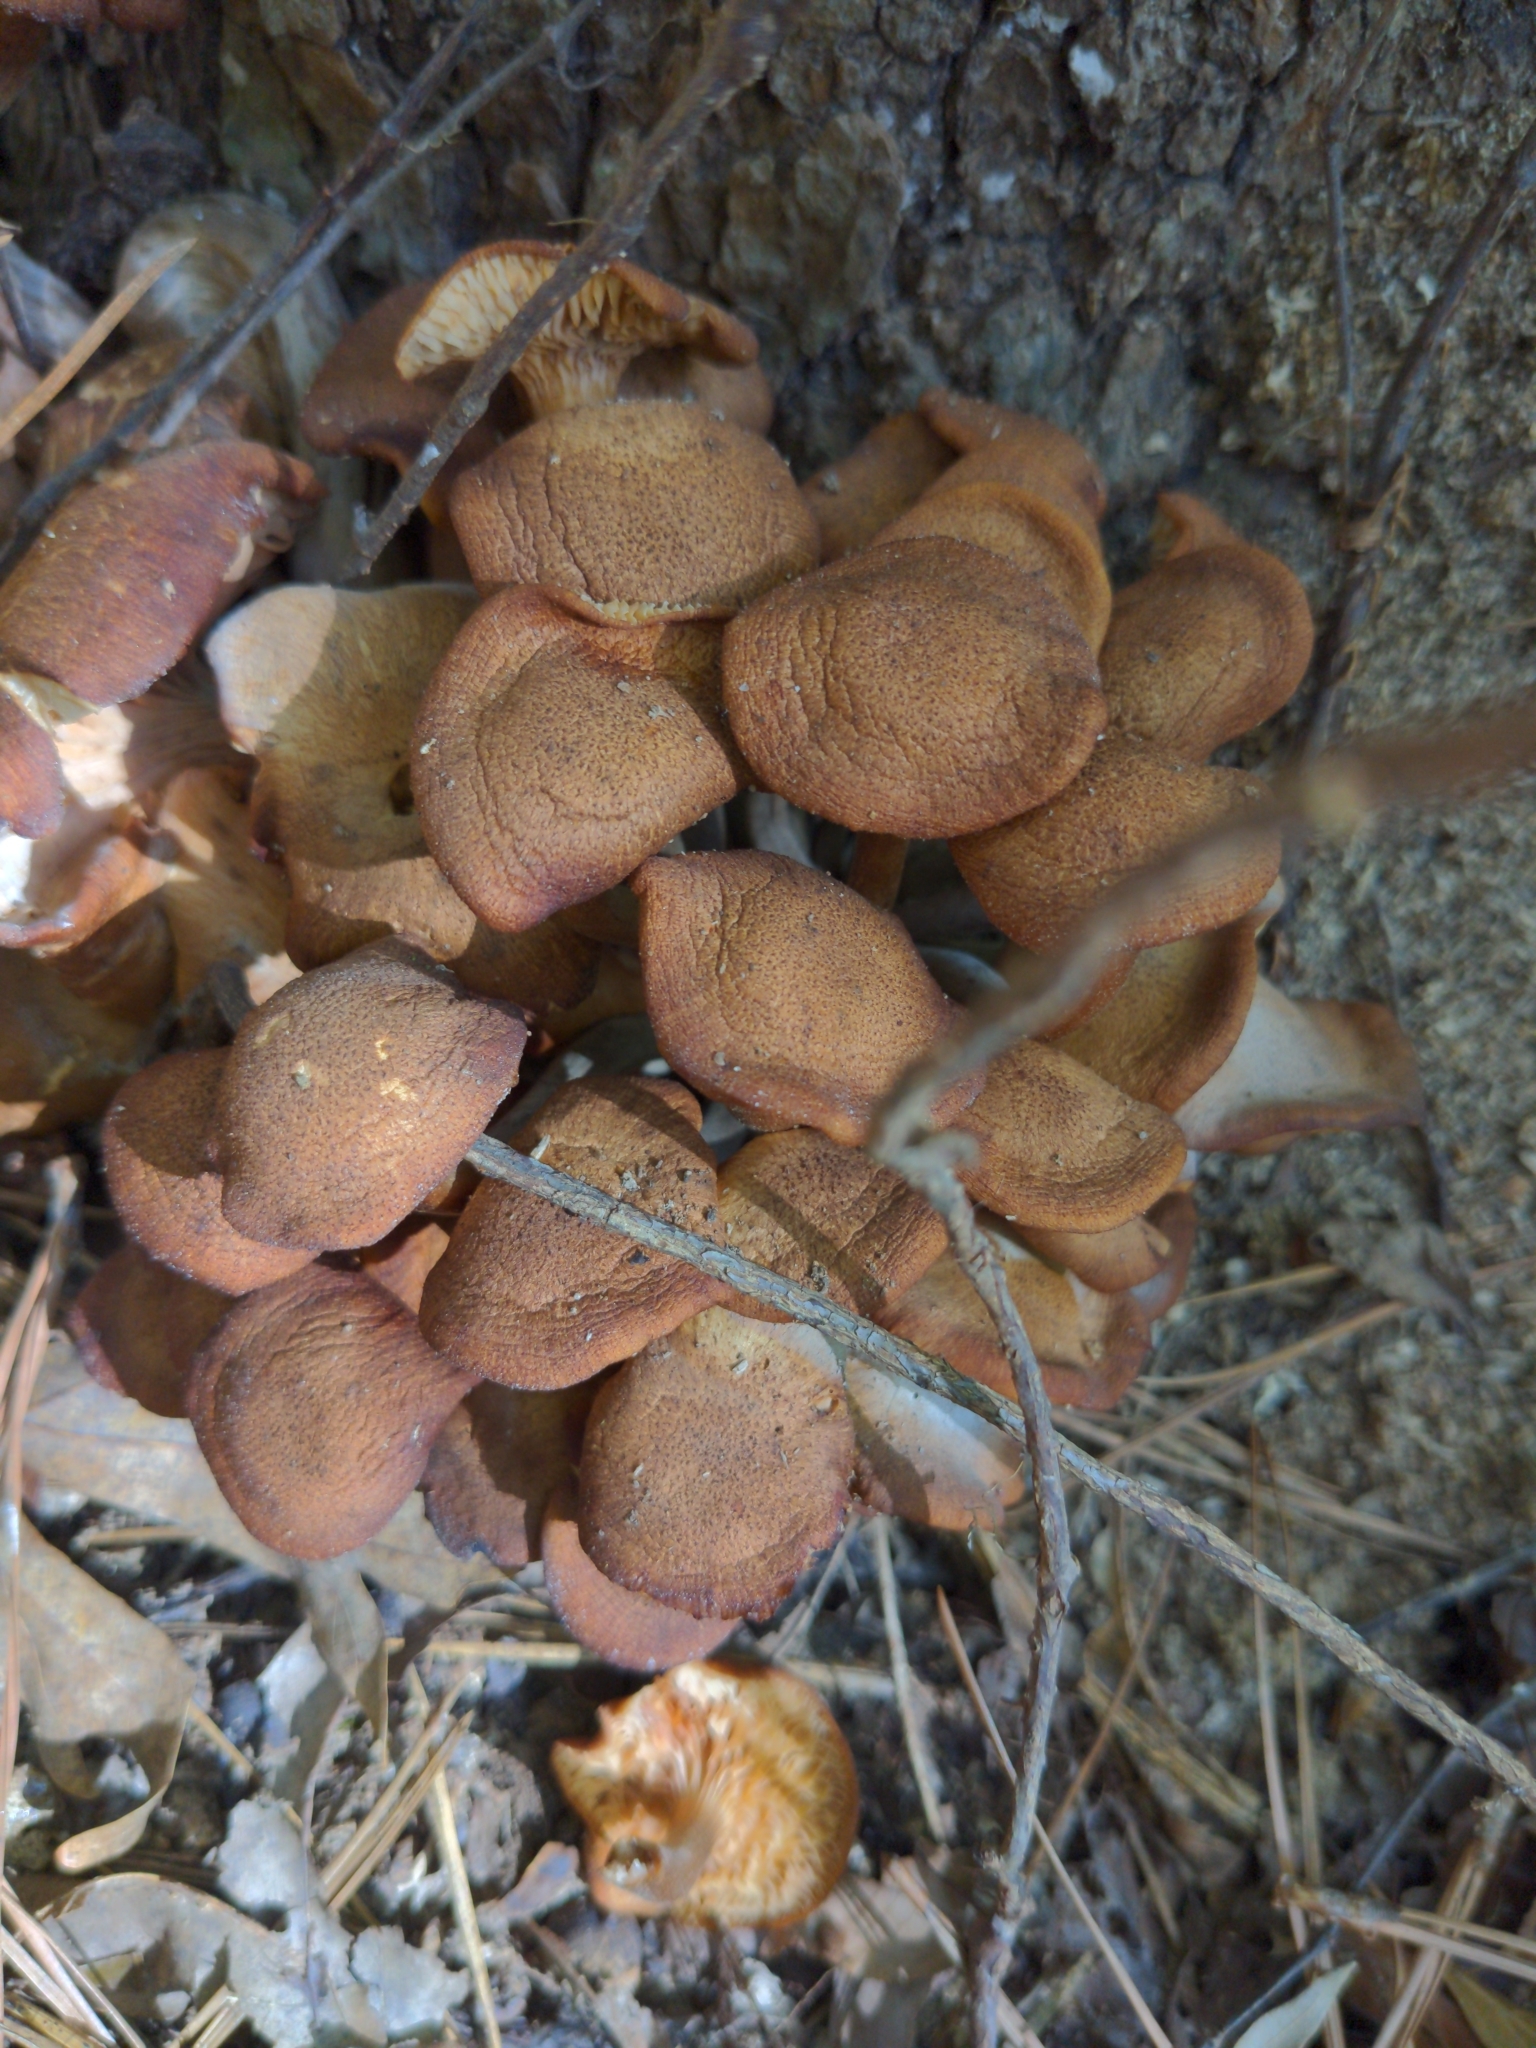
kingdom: Fungi
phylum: Basidiomycota
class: Agaricomycetes
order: Agaricales
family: Physalacriaceae
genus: Desarmillaria
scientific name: Desarmillaria caespitosa
